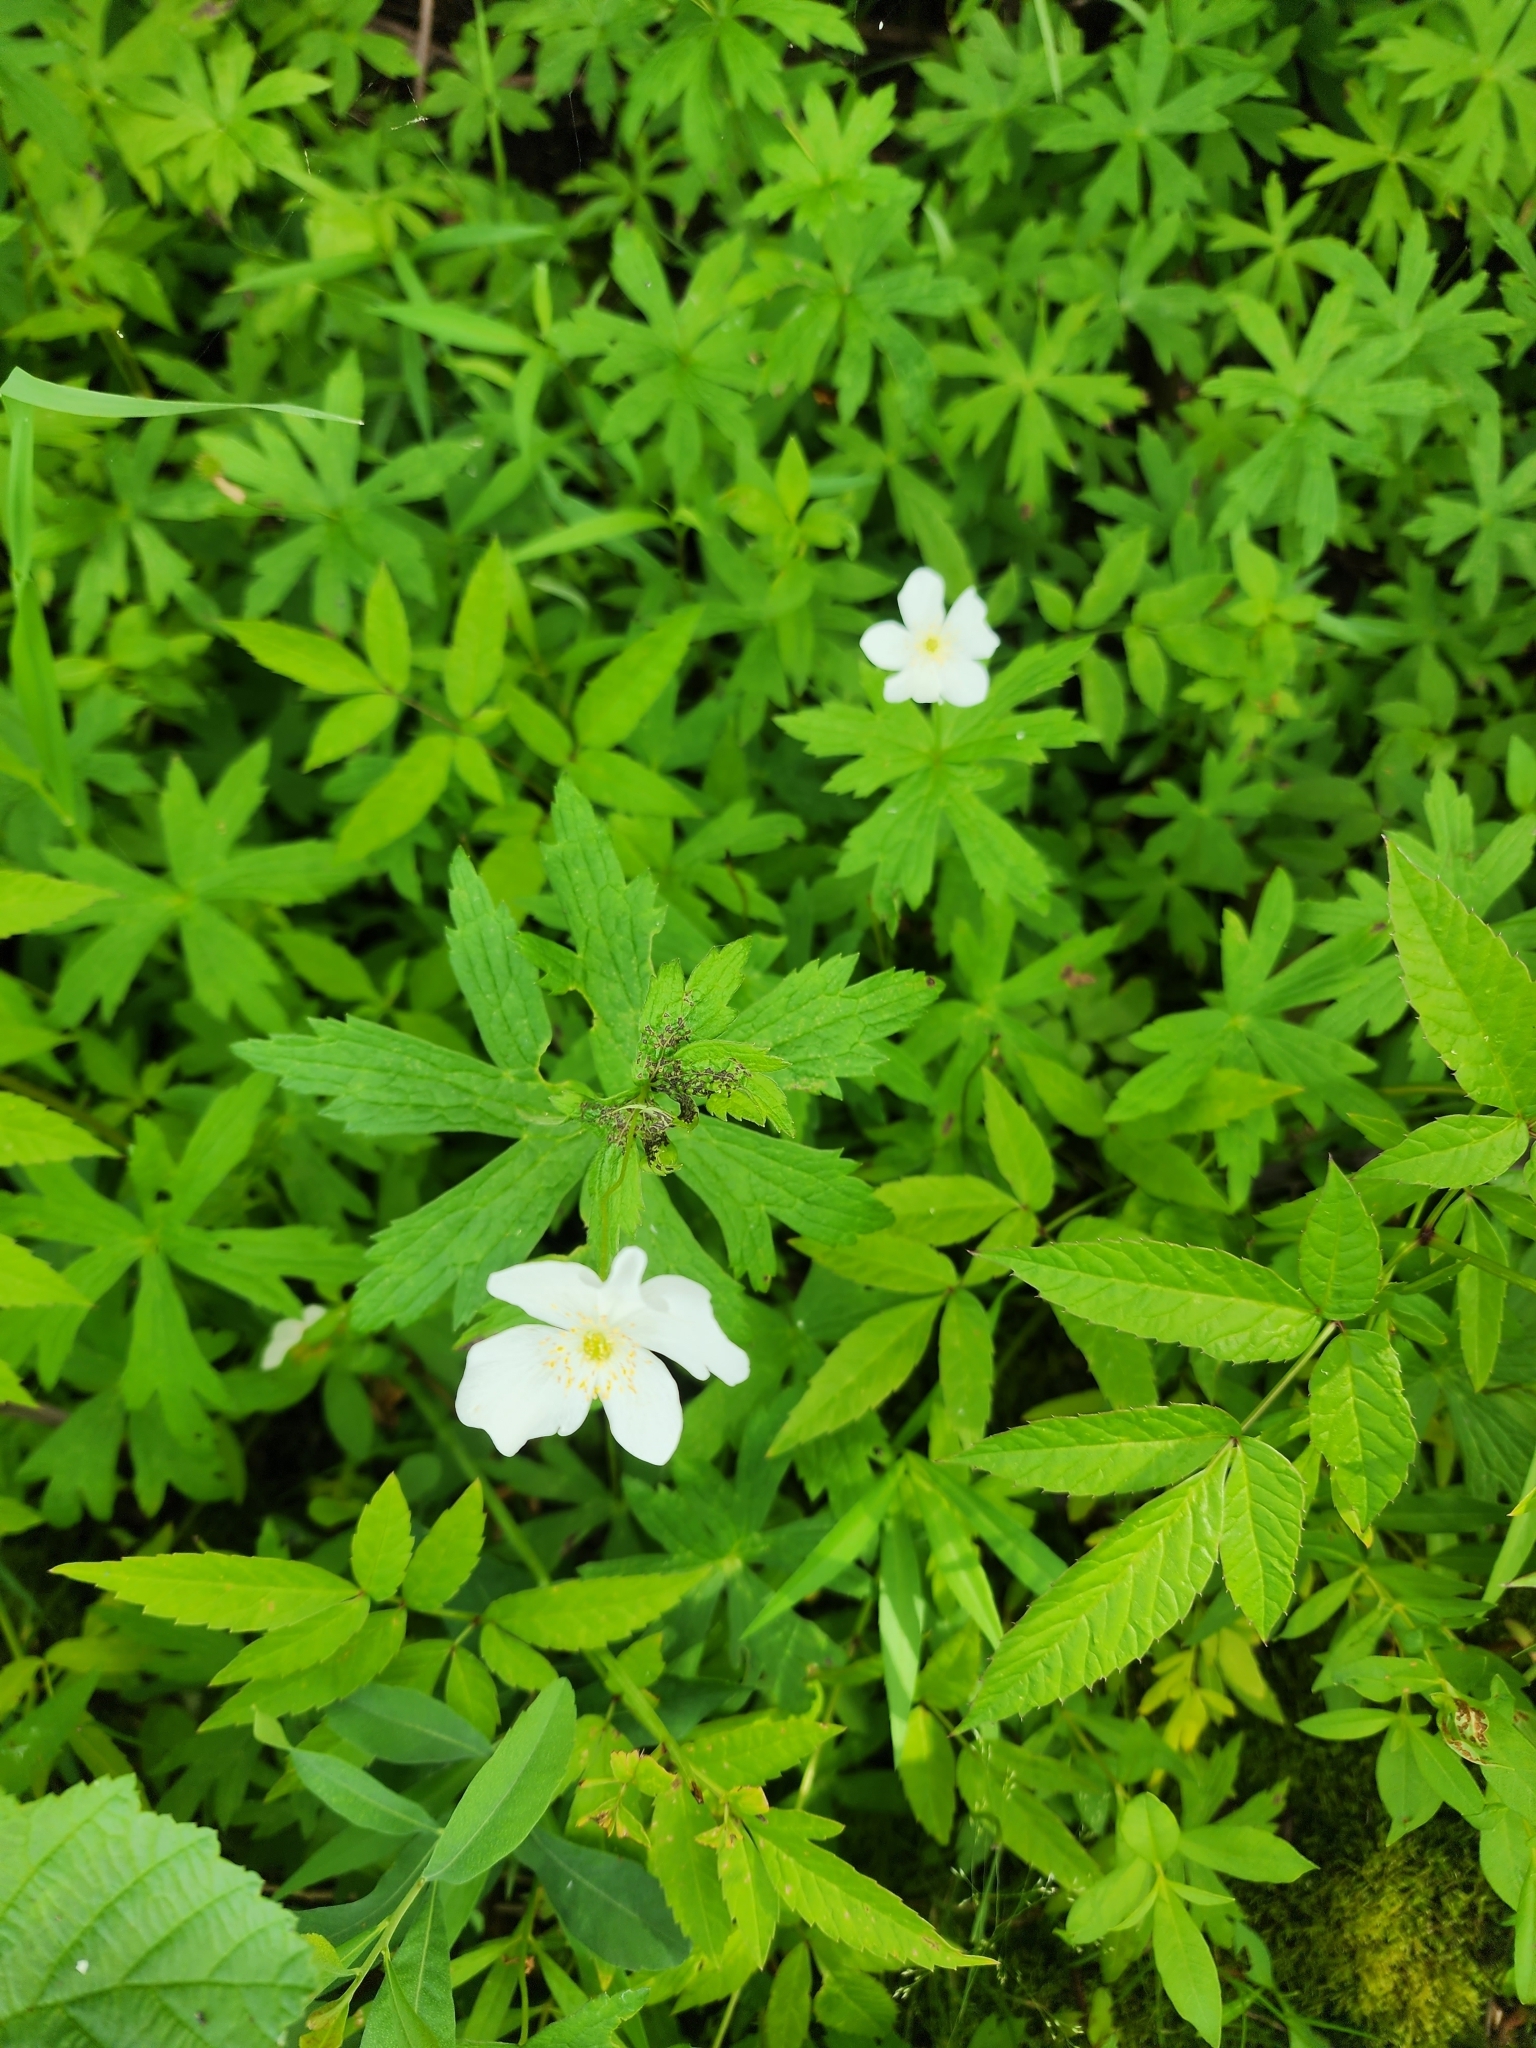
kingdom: Plantae
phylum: Tracheophyta
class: Magnoliopsida
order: Ranunculales
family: Ranunculaceae
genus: Anemonastrum
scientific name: Anemonastrum canadense
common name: Canada anemone
